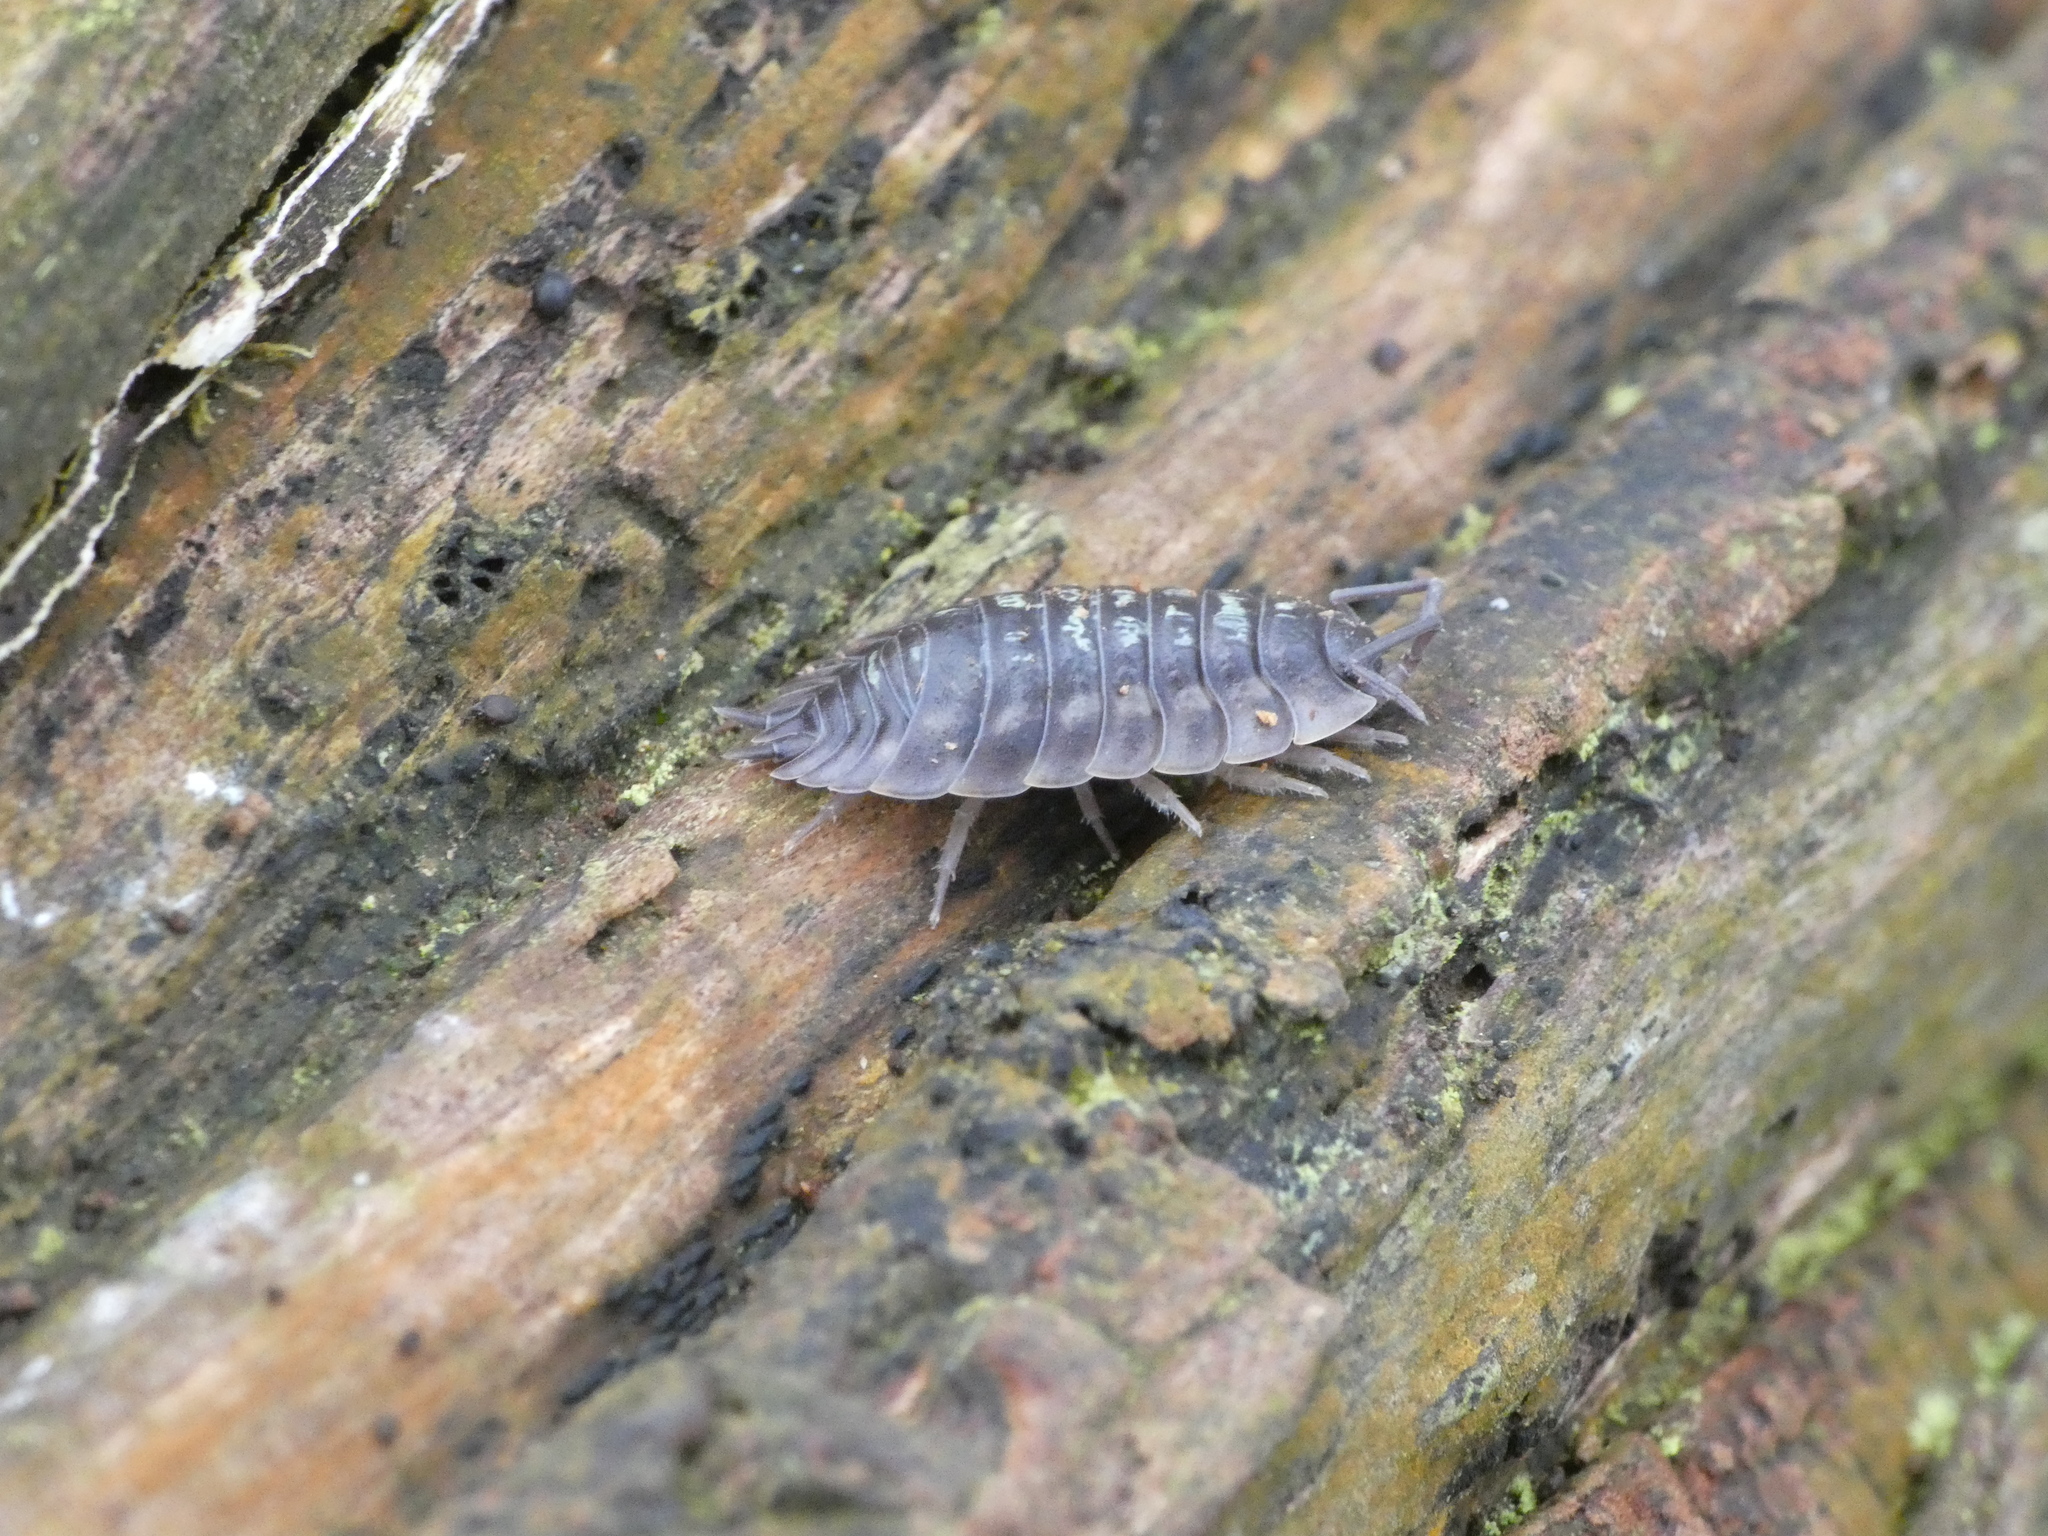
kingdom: Animalia
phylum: Arthropoda
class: Malacostraca
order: Isopoda
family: Oniscidae
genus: Oniscus
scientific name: Oniscus asellus
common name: Common shiny woodlouse
